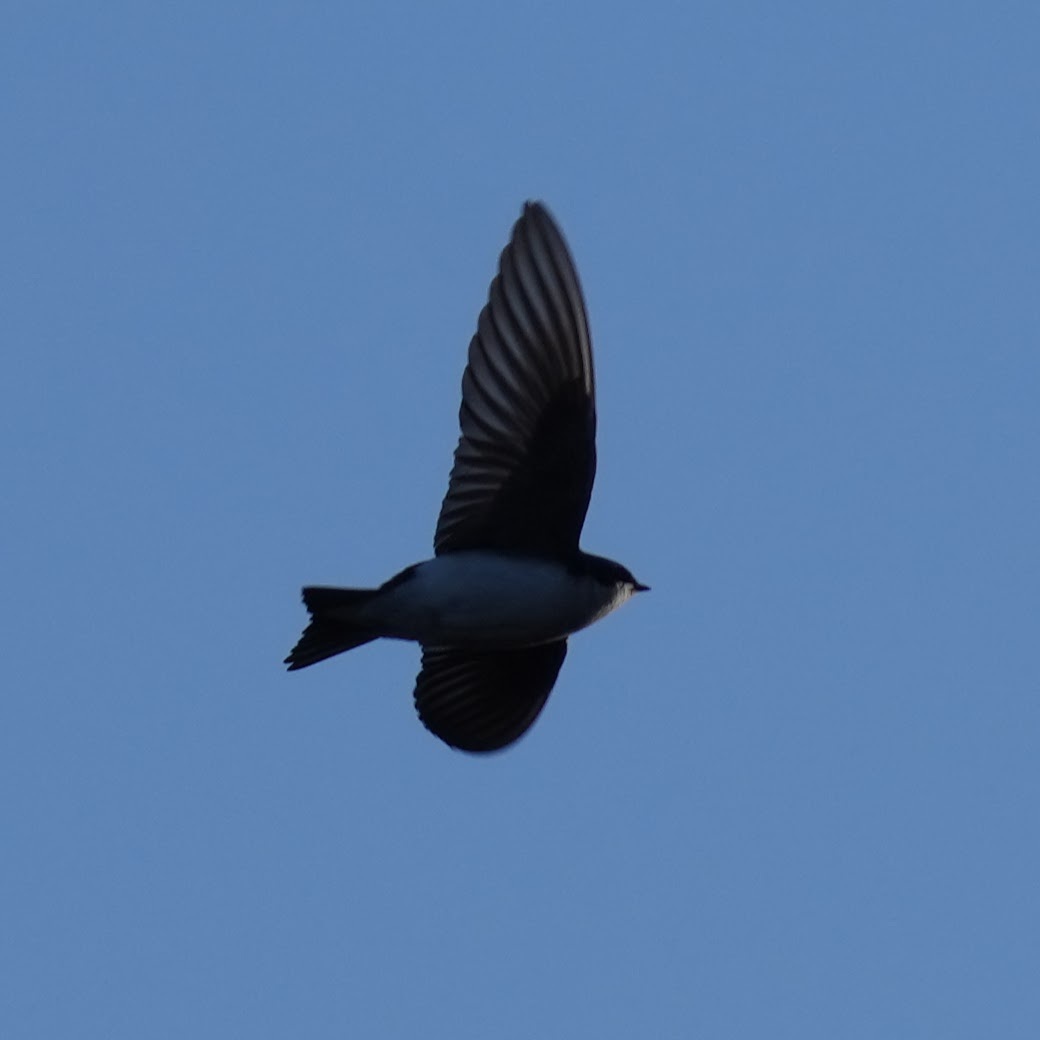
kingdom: Animalia
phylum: Chordata
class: Aves
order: Passeriformes
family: Hirundinidae
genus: Tachycineta
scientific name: Tachycineta bicolor
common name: Tree swallow
